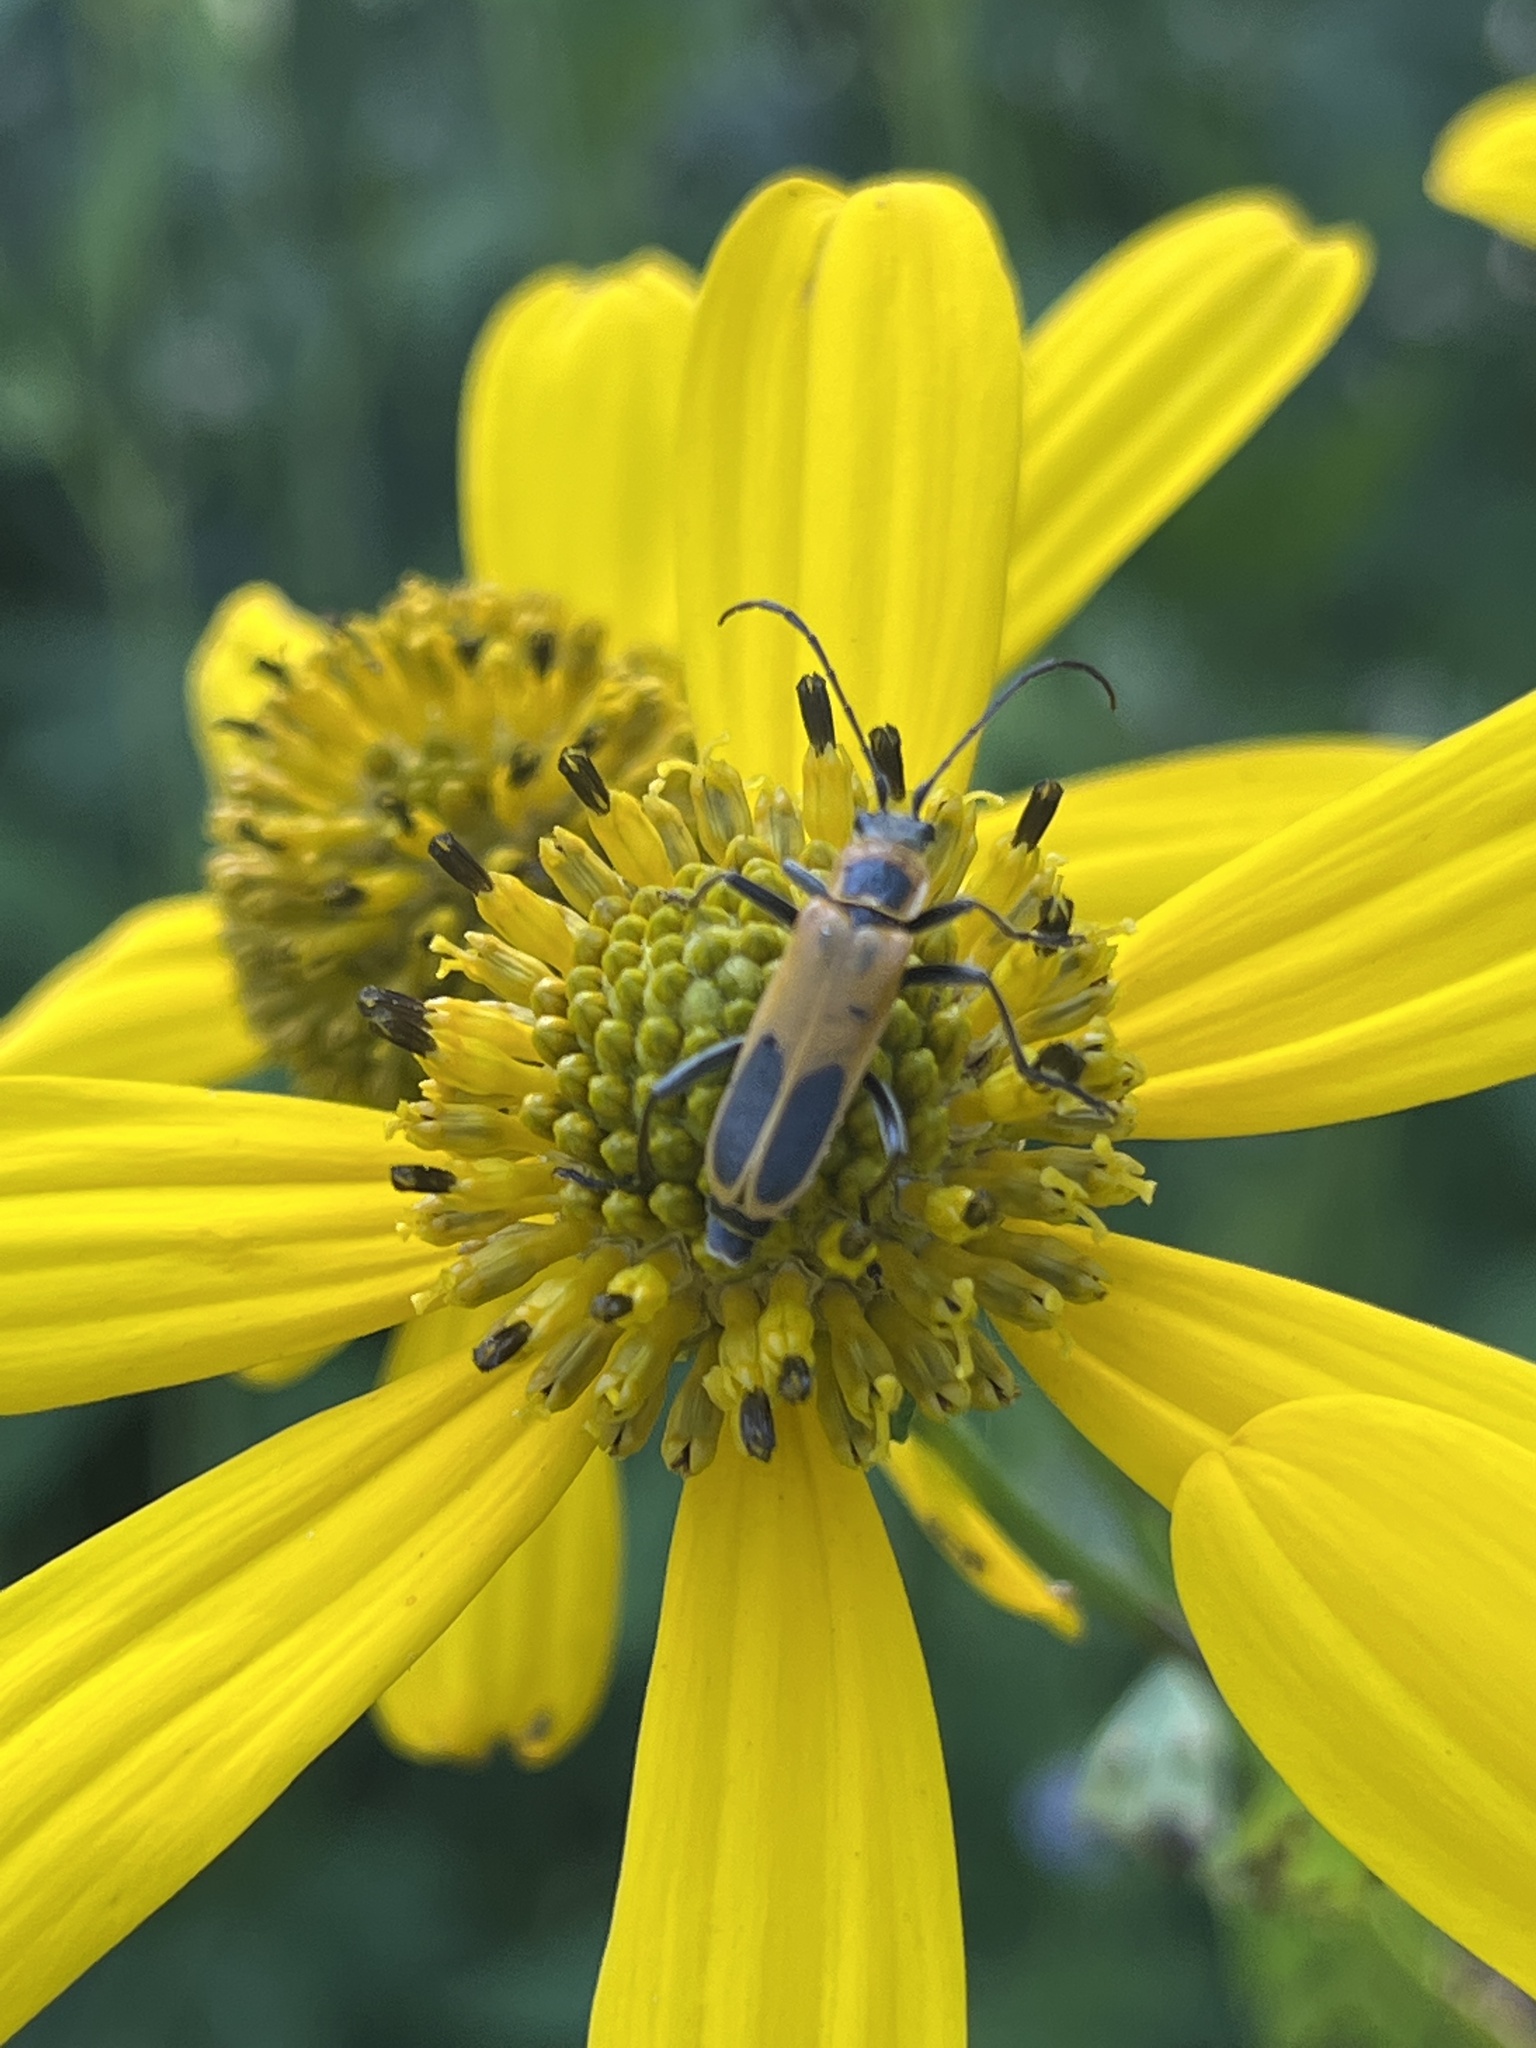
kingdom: Animalia
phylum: Arthropoda
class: Insecta
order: Coleoptera
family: Cantharidae
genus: Chauliognathus
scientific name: Chauliognathus pensylvanicus
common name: Goldenrod soldier beetle
